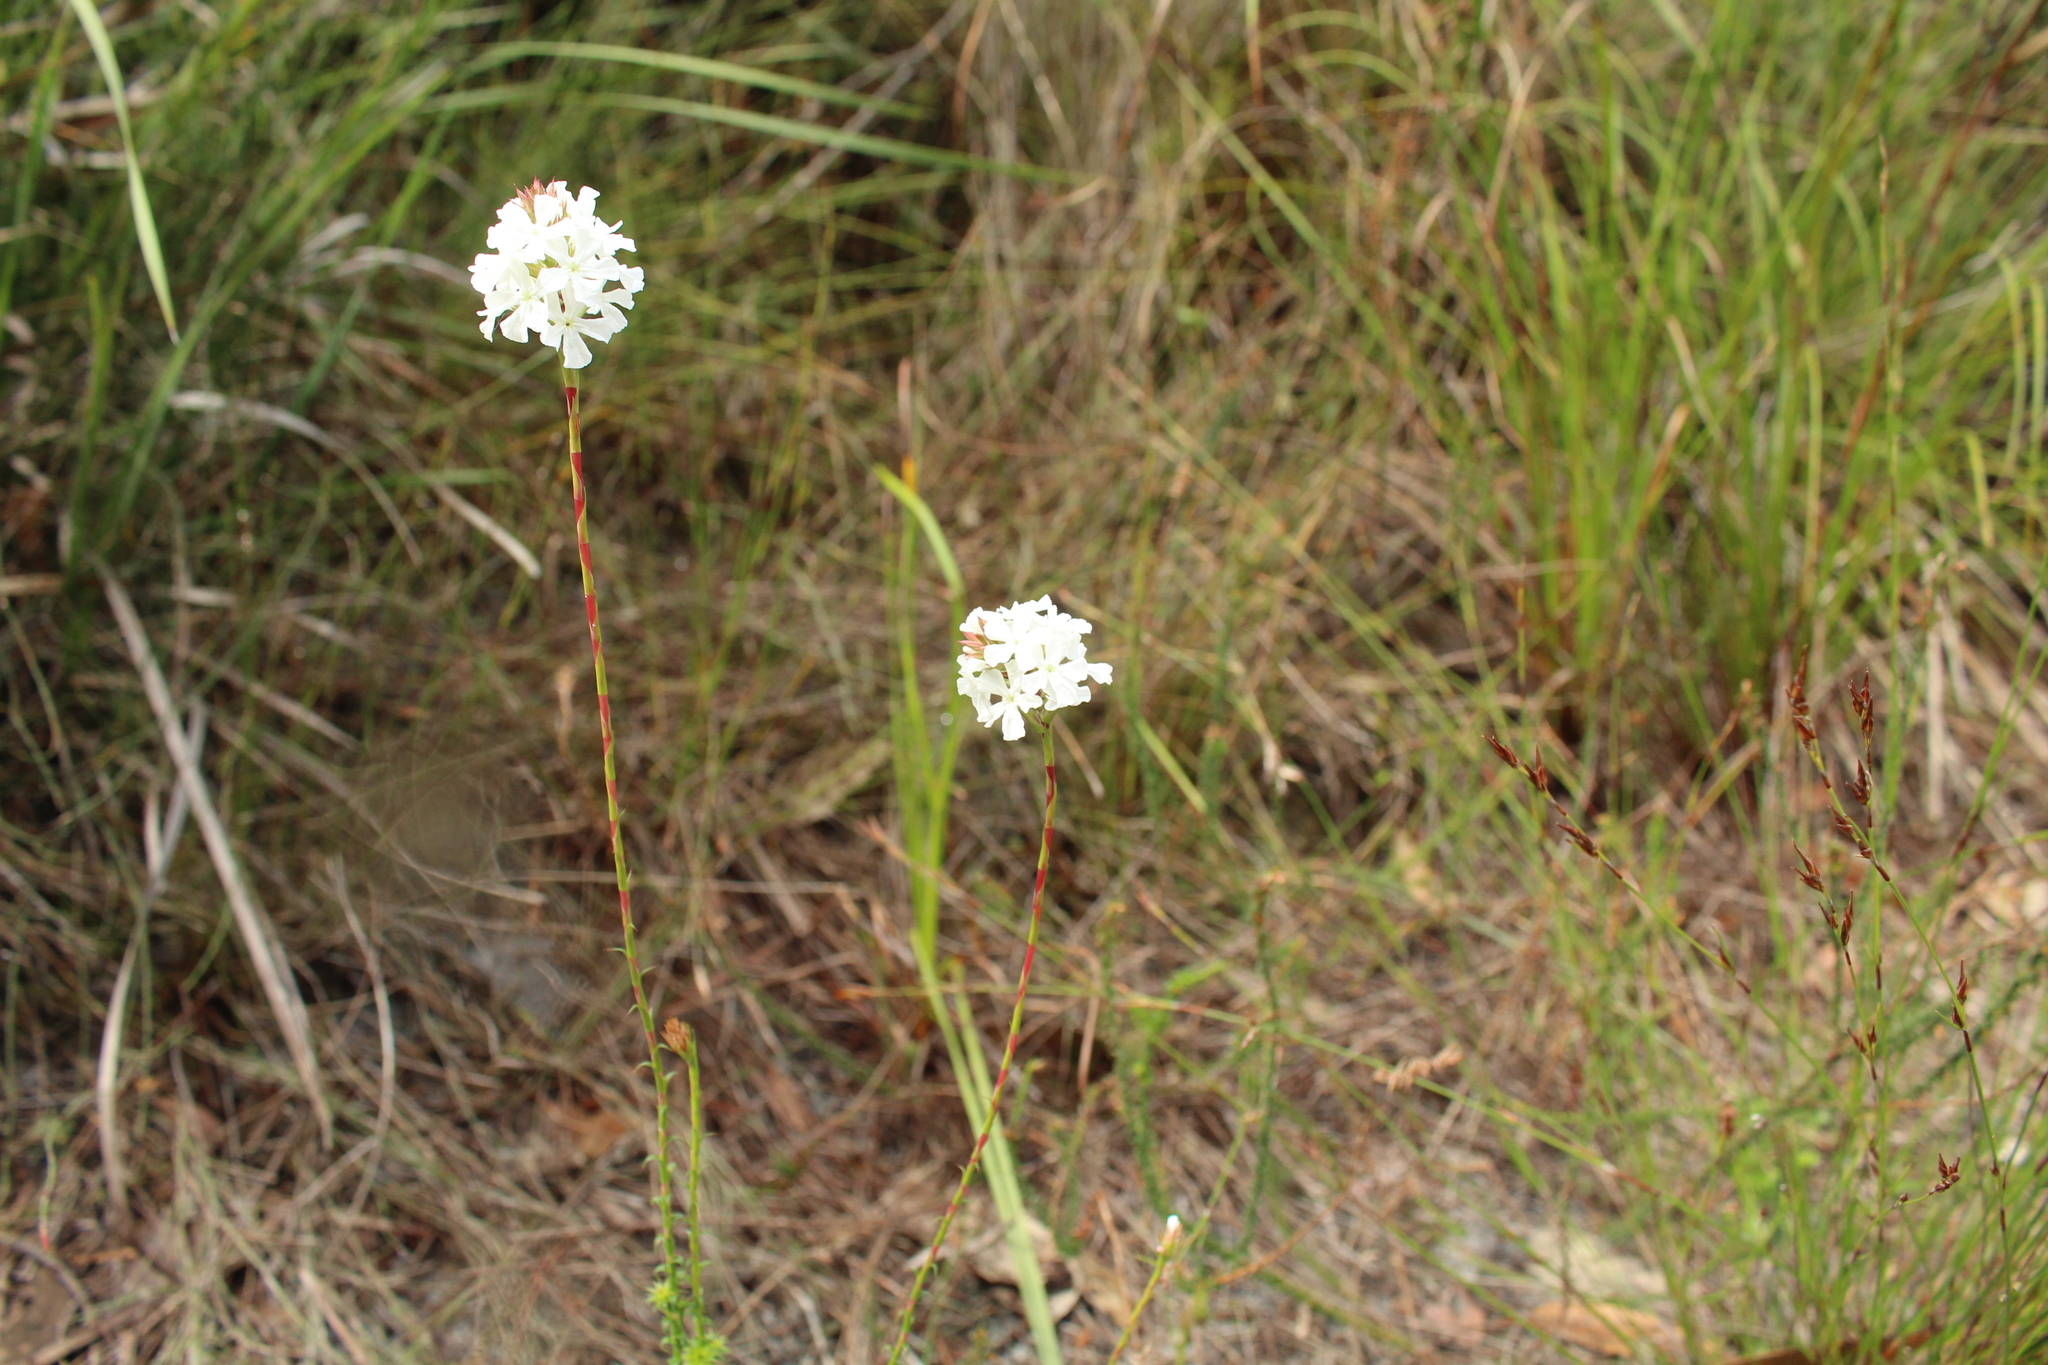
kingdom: Plantae
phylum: Tracheophyta
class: Magnoliopsida
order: Ericales
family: Ericaceae
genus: Sphenotoma
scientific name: Sphenotoma gracilis
